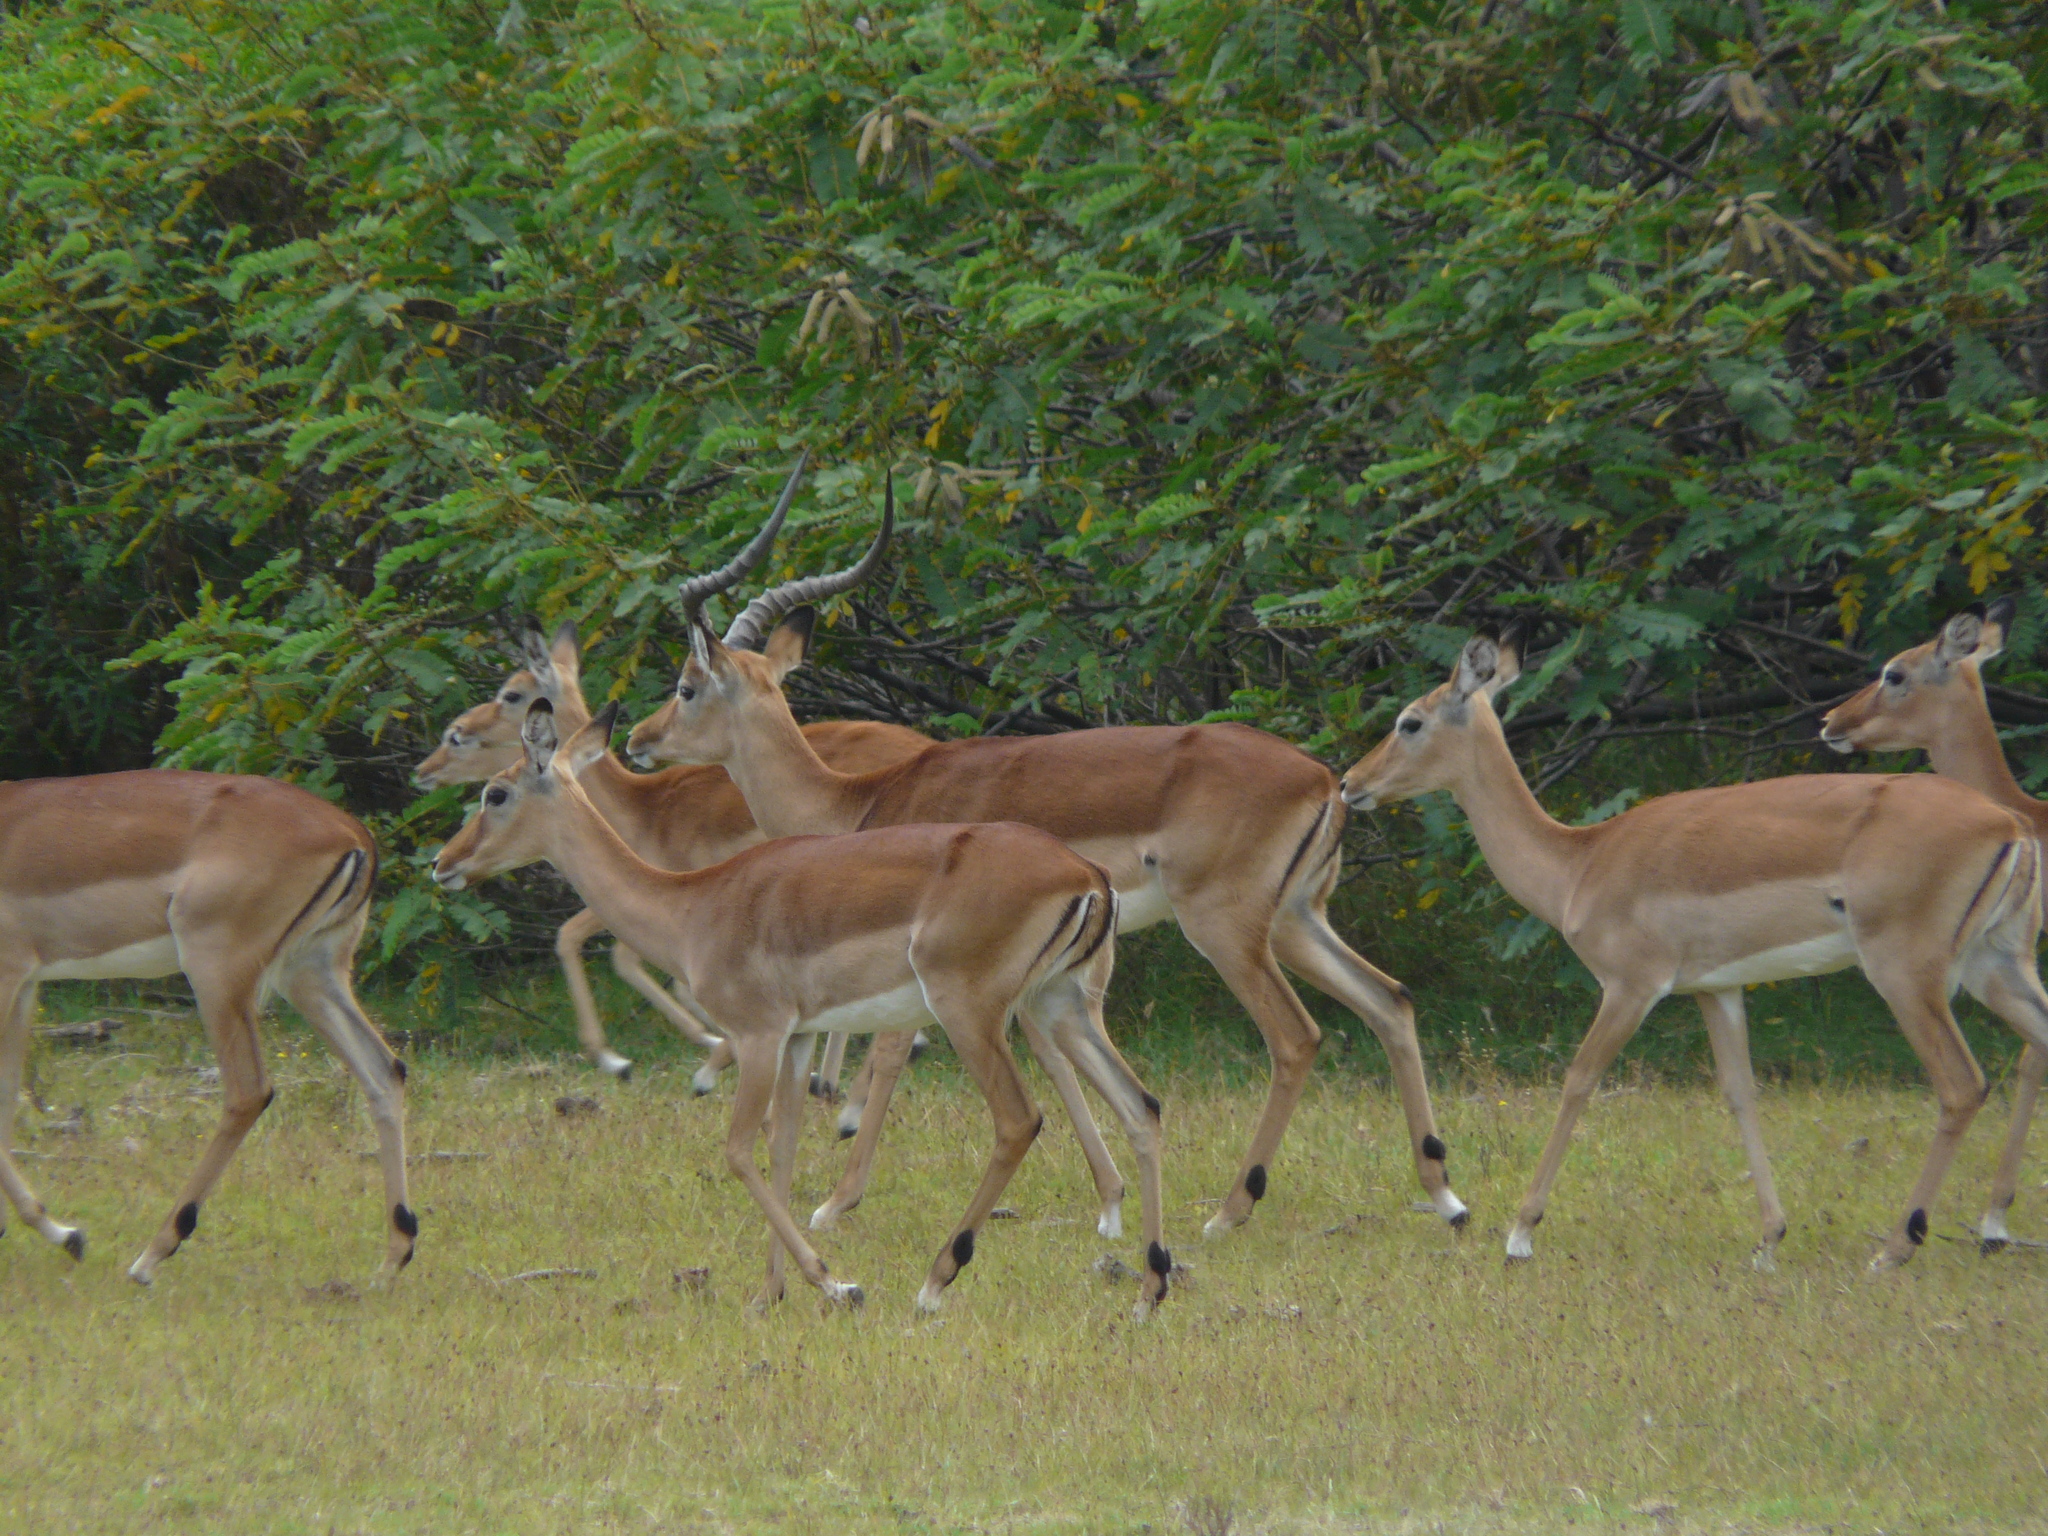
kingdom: Animalia
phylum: Chordata
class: Mammalia
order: Artiodactyla
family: Bovidae
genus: Aepyceros
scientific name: Aepyceros melampus
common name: Impala
